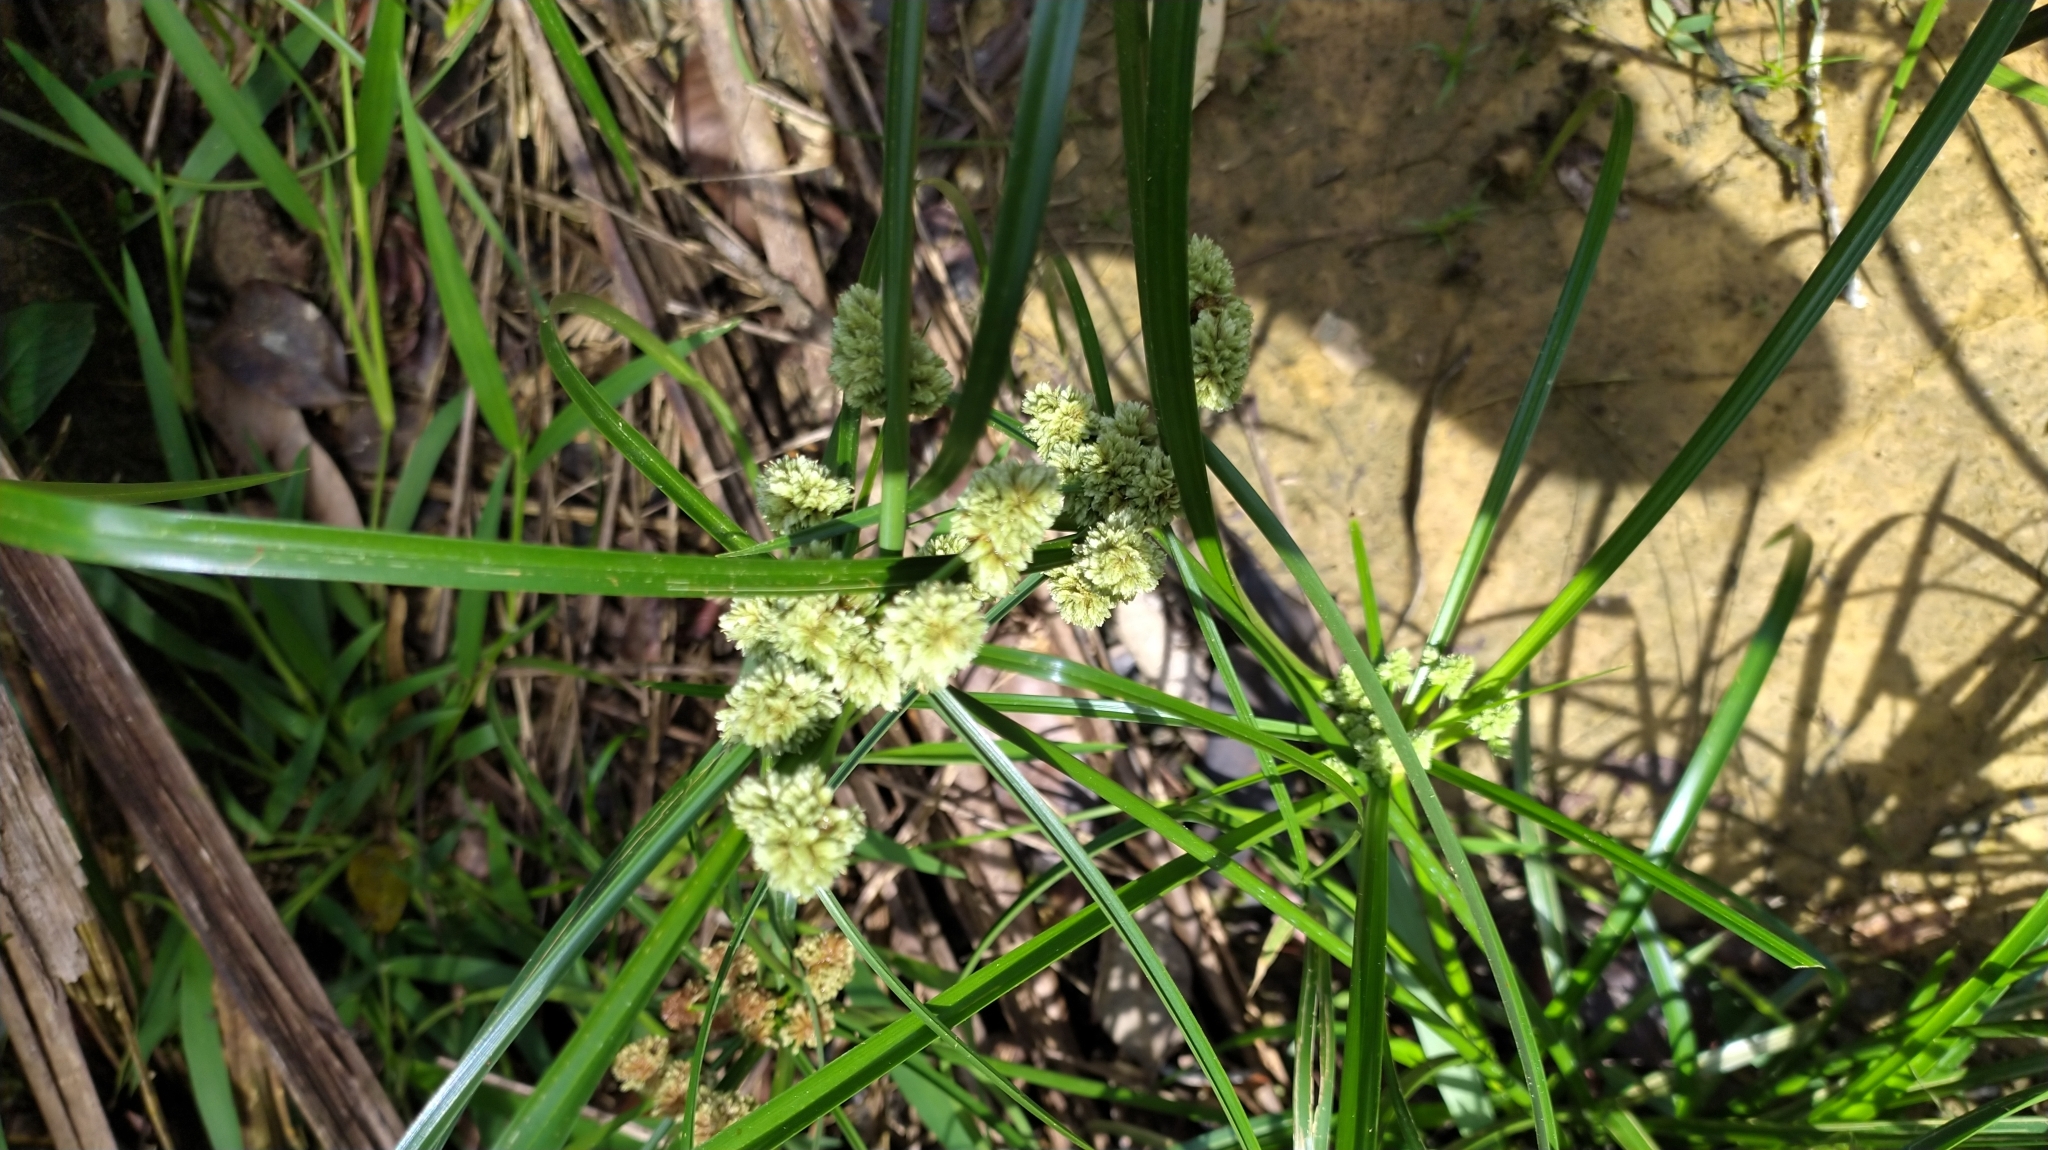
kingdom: Plantae
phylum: Tracheophyta
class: Liliopsida
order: Poales
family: Cyperaceae
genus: Cyperus
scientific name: Cyperus luzulae
